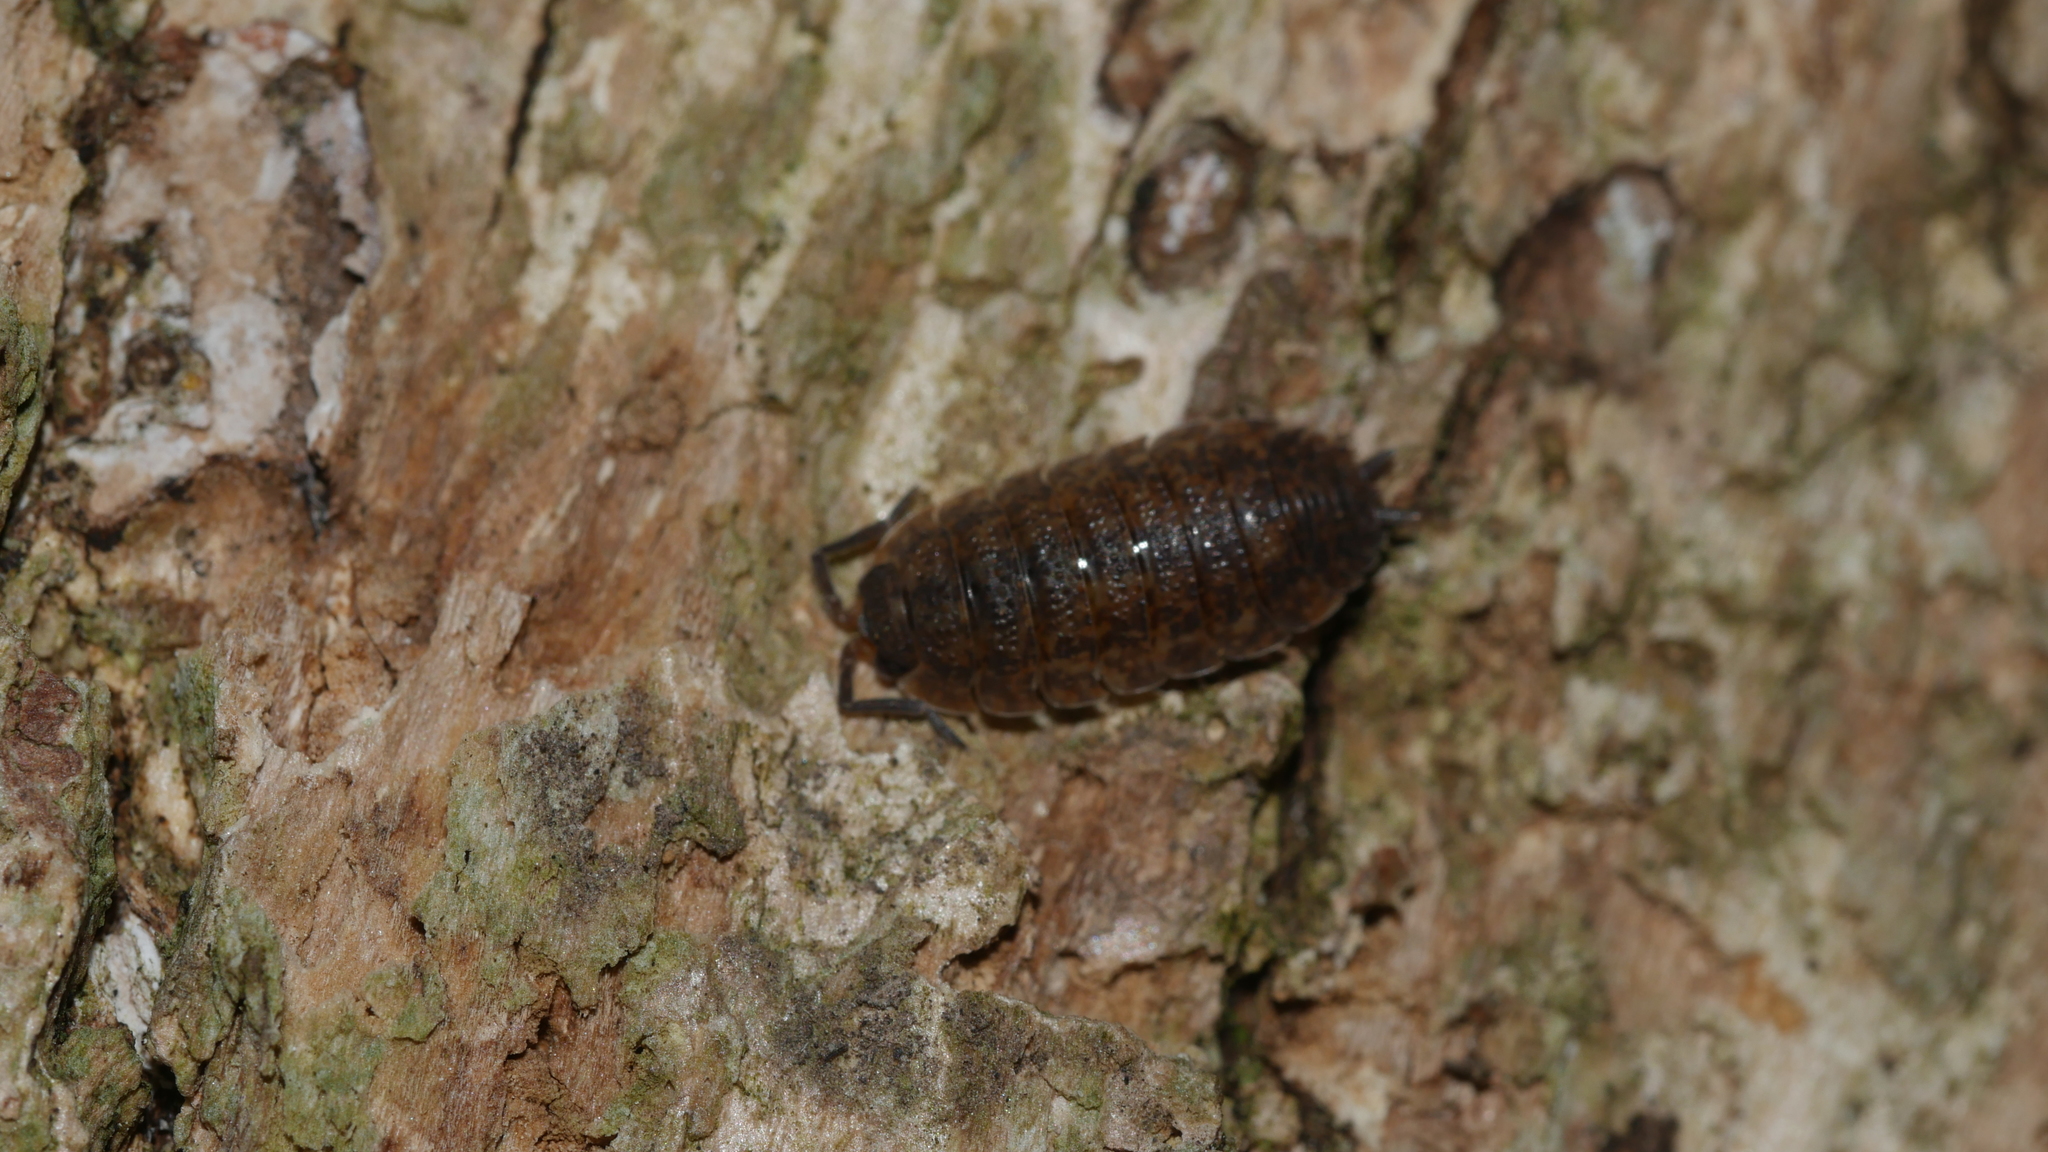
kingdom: Animalia
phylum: Arthropoda
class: Malacostraca
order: Isopoda
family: Porcellionidae
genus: Porcellio
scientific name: Porcellio scaber
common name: Common rough woodlouse
